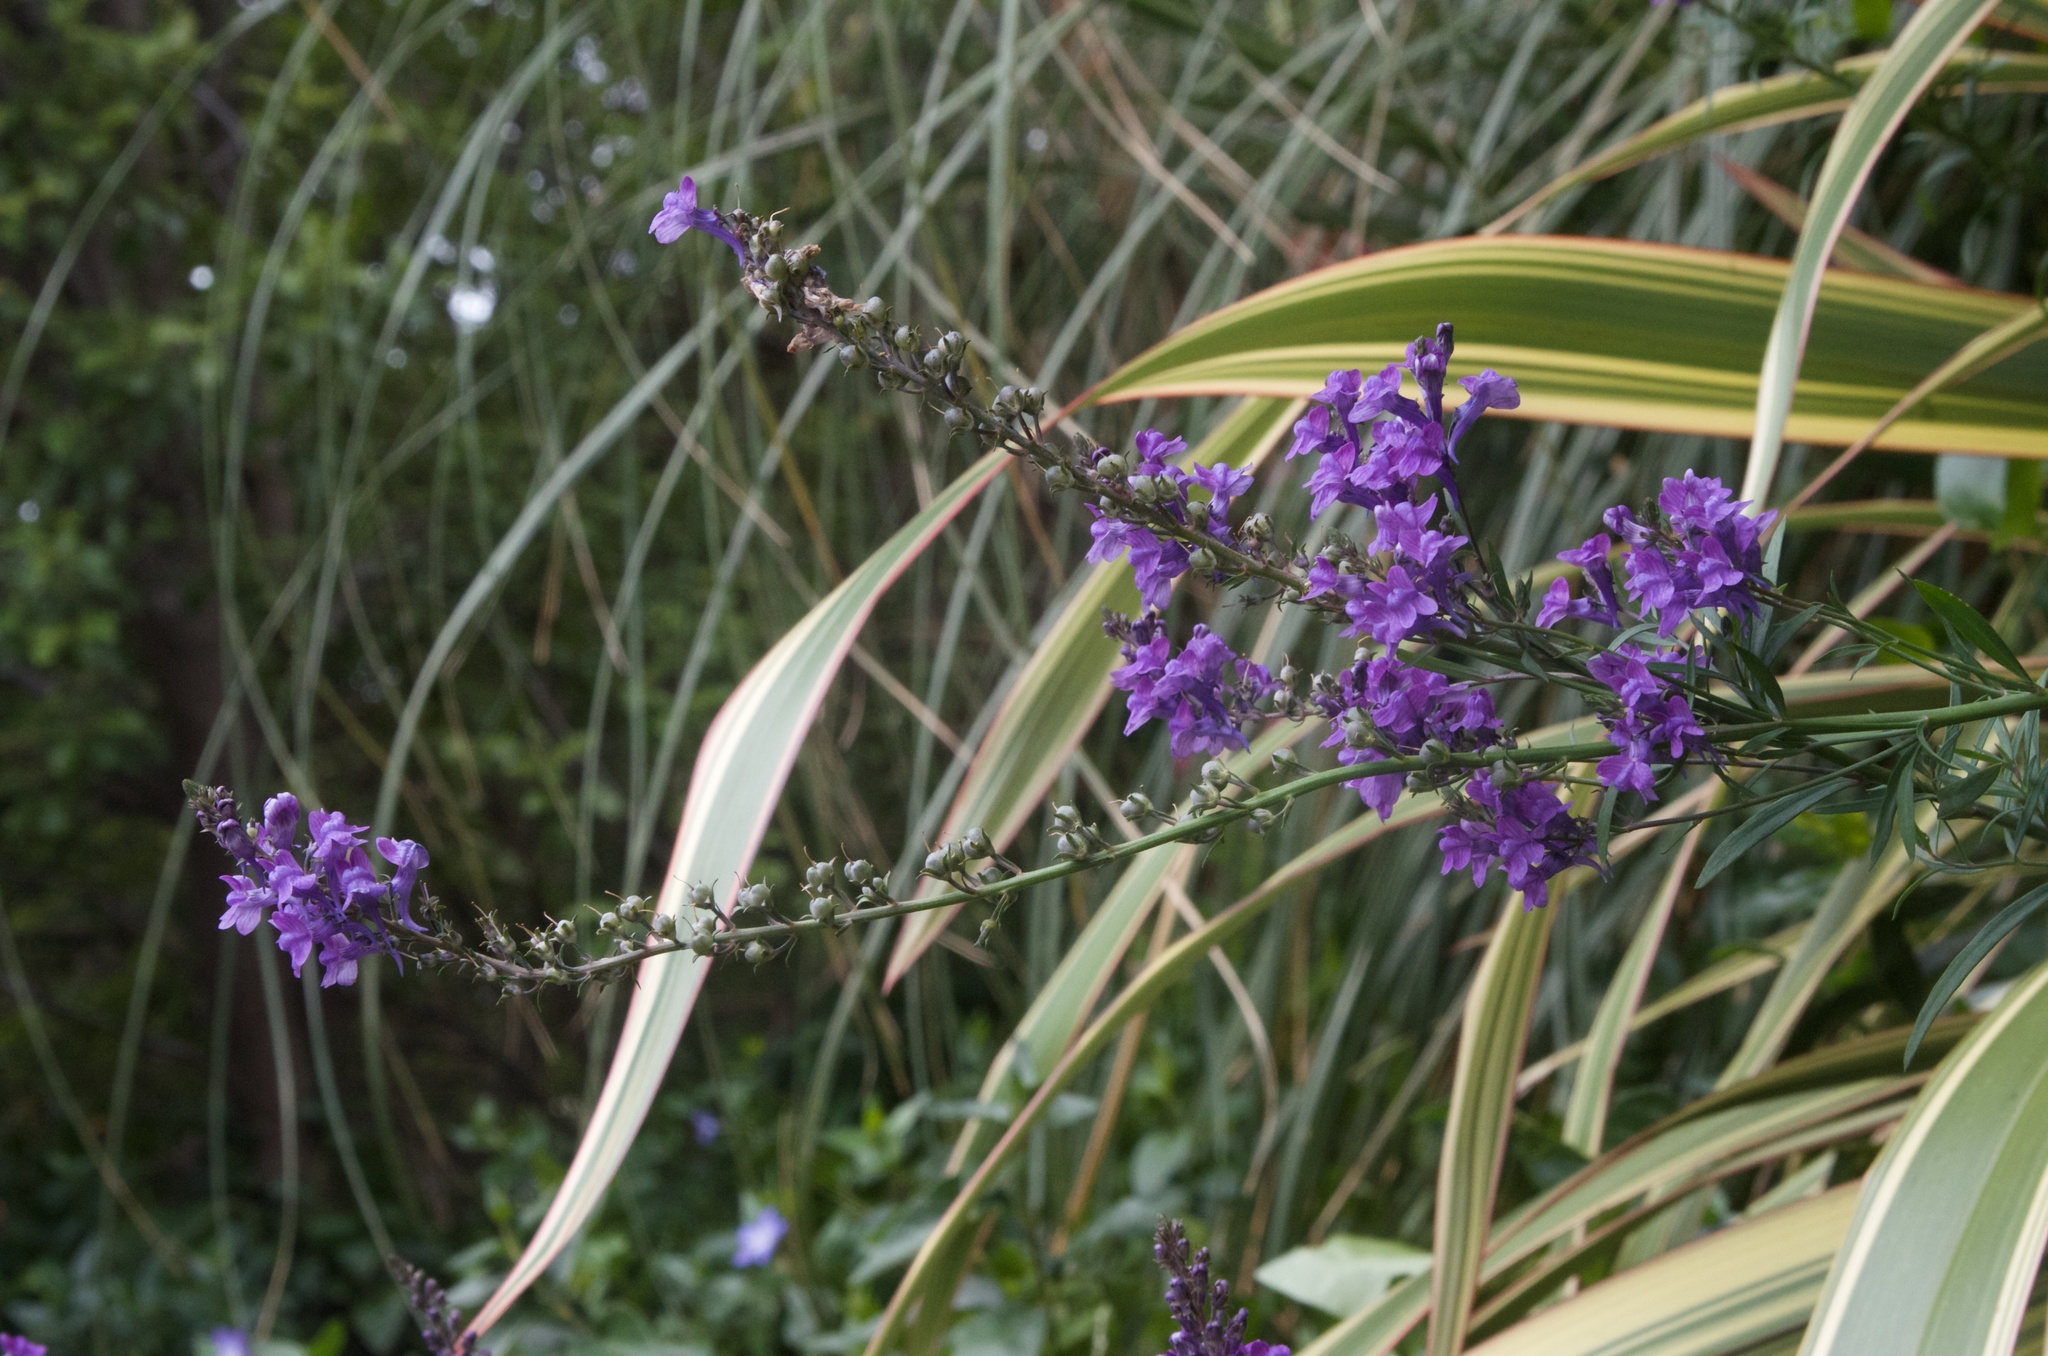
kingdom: Plantae
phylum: Tracheophyta
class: Magnoliopsida
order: Lamiales
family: Plantaginaceae
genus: Linaria
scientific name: Linaria purpurea
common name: Purple toadflax
